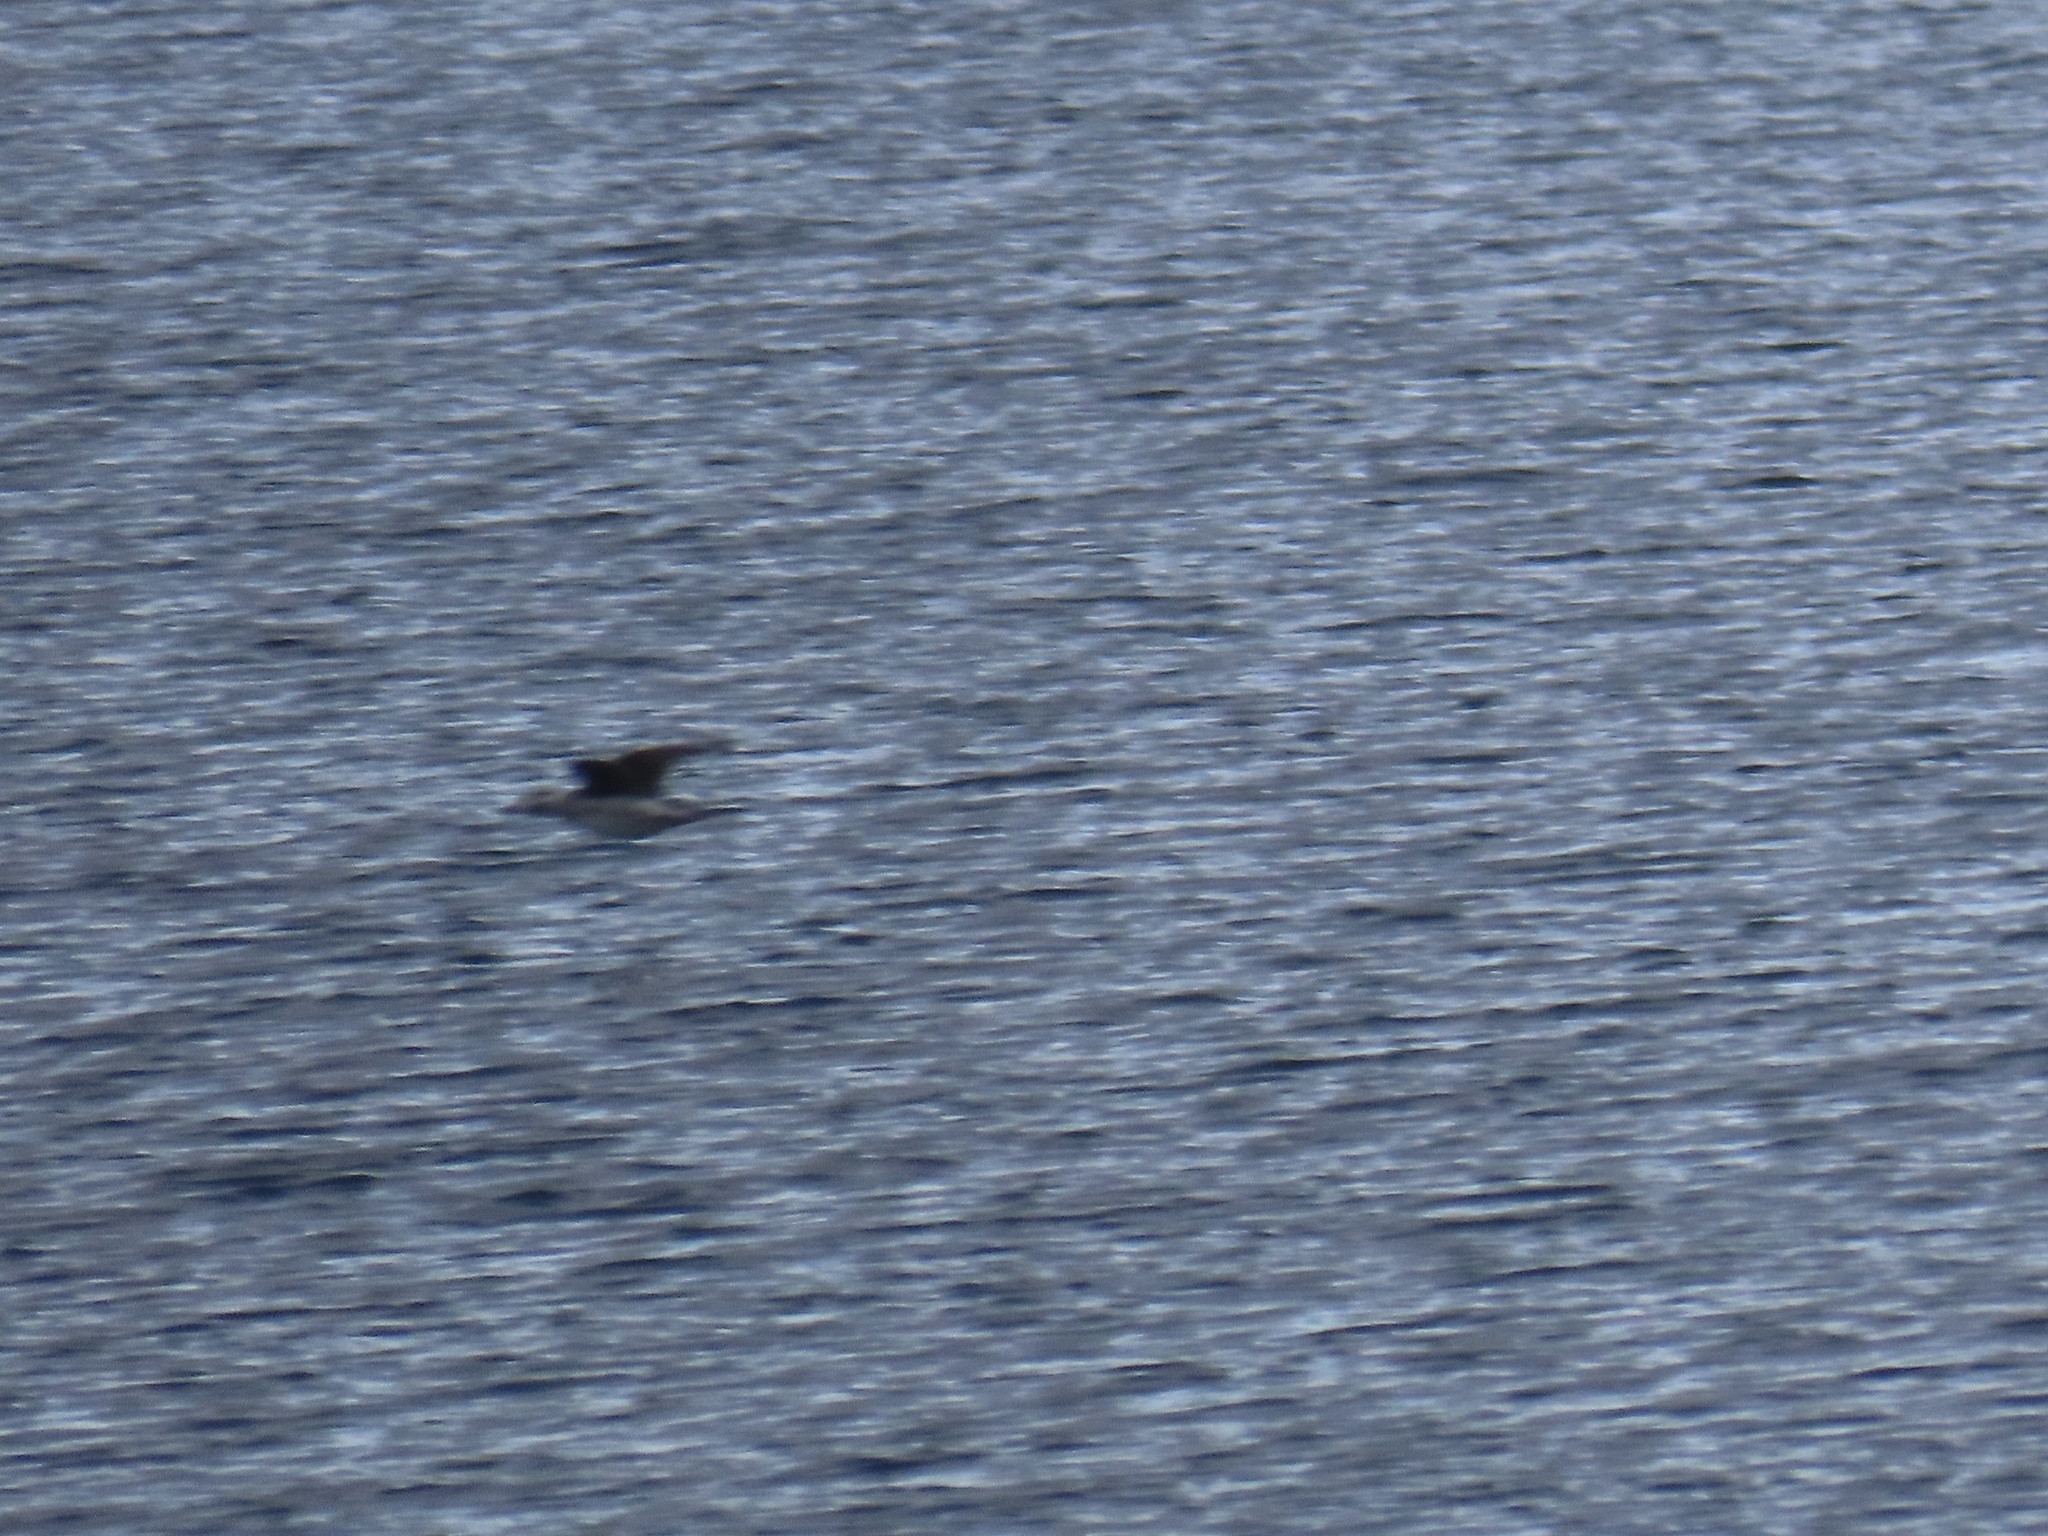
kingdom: Animalia
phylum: Chordata
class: Aves
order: Anseriformes
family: Anatidae
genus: Clangula
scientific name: Clangula hyemalis
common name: Long-tailed duck
